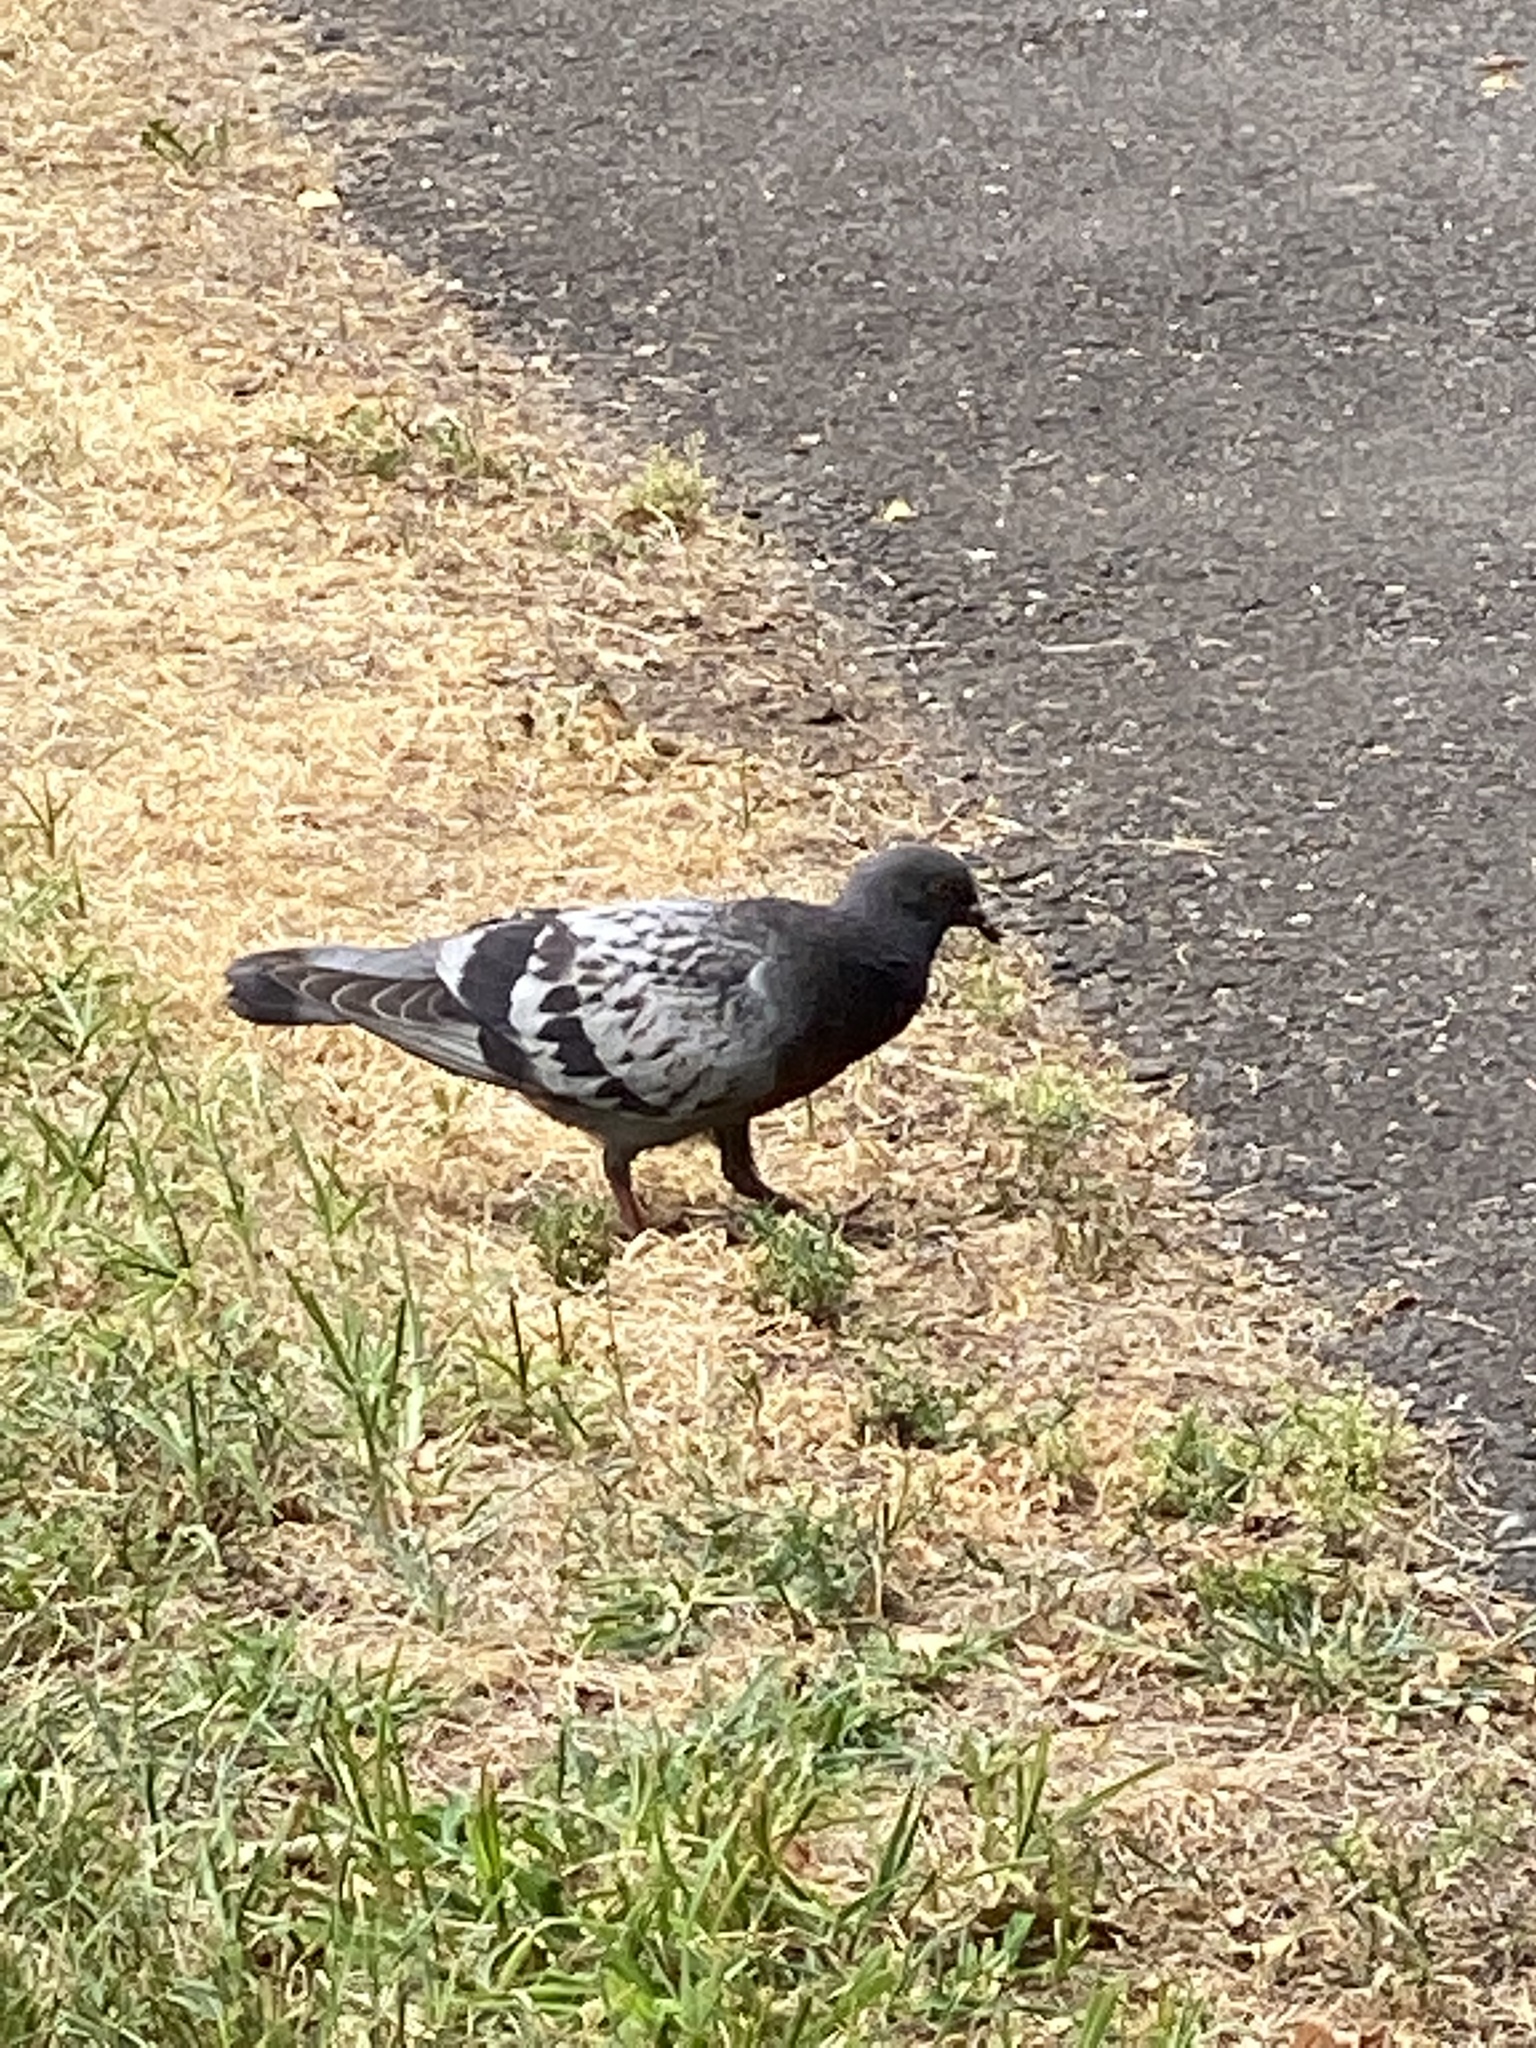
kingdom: Animalia
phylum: Chordata
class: Aves
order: Columbiformes
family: Columbidae
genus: Columba
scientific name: Columba livia
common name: Rock pigeon
